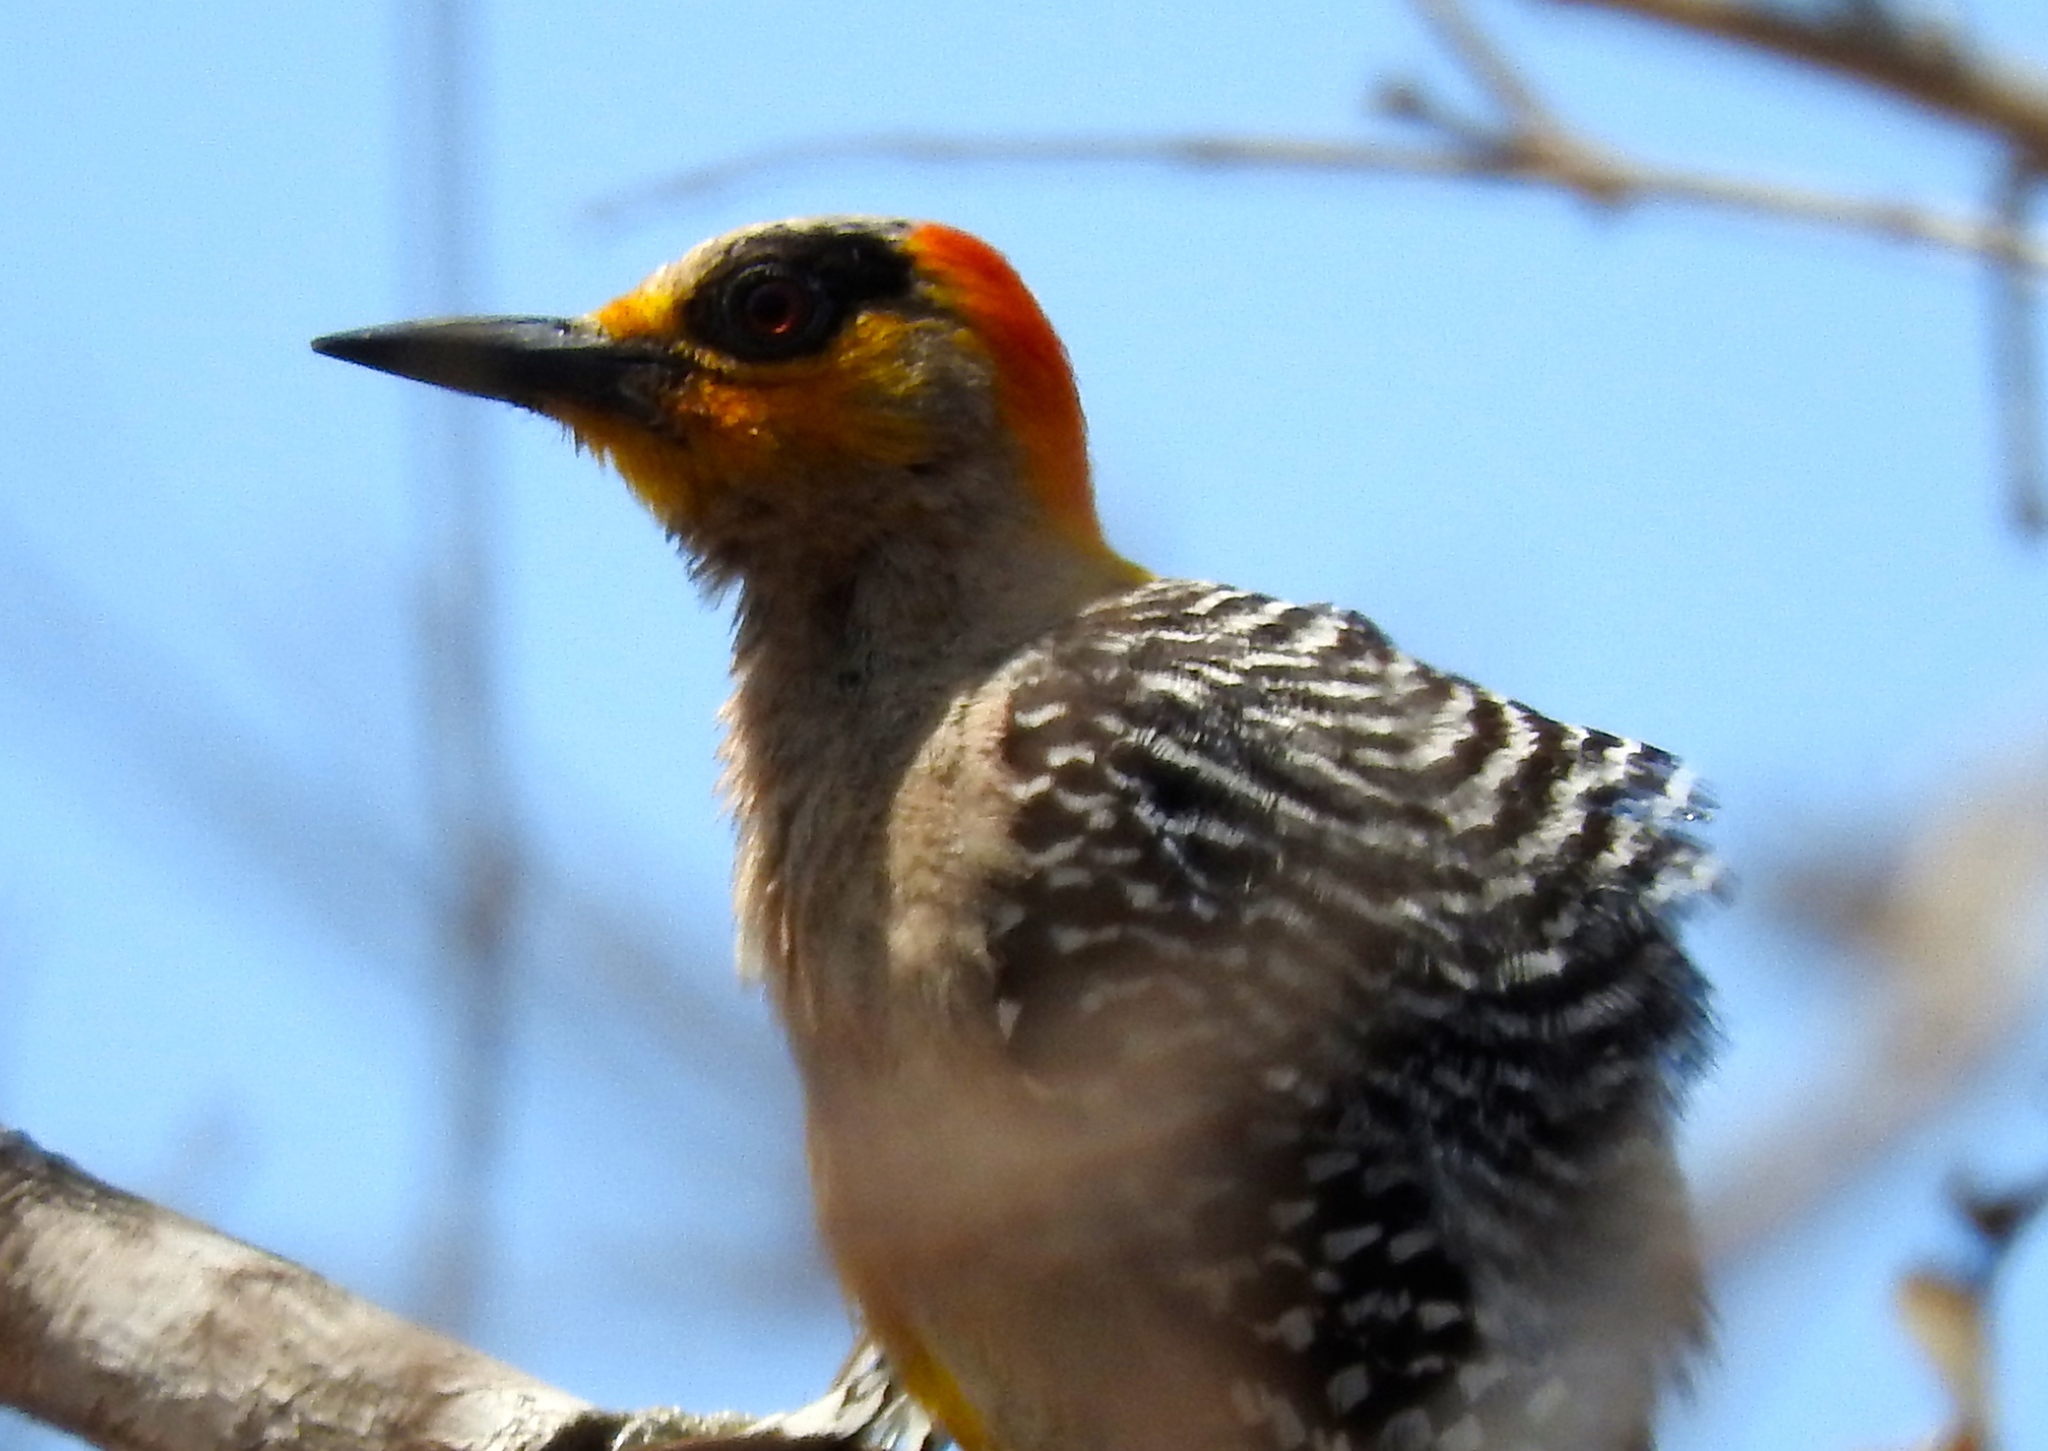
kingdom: Animalia
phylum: Chordata
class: Aves
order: Piciformes
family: Picidae
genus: Melanerpes
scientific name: Melanerpes chrysogenys
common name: Golden-cheeked woodpecker
